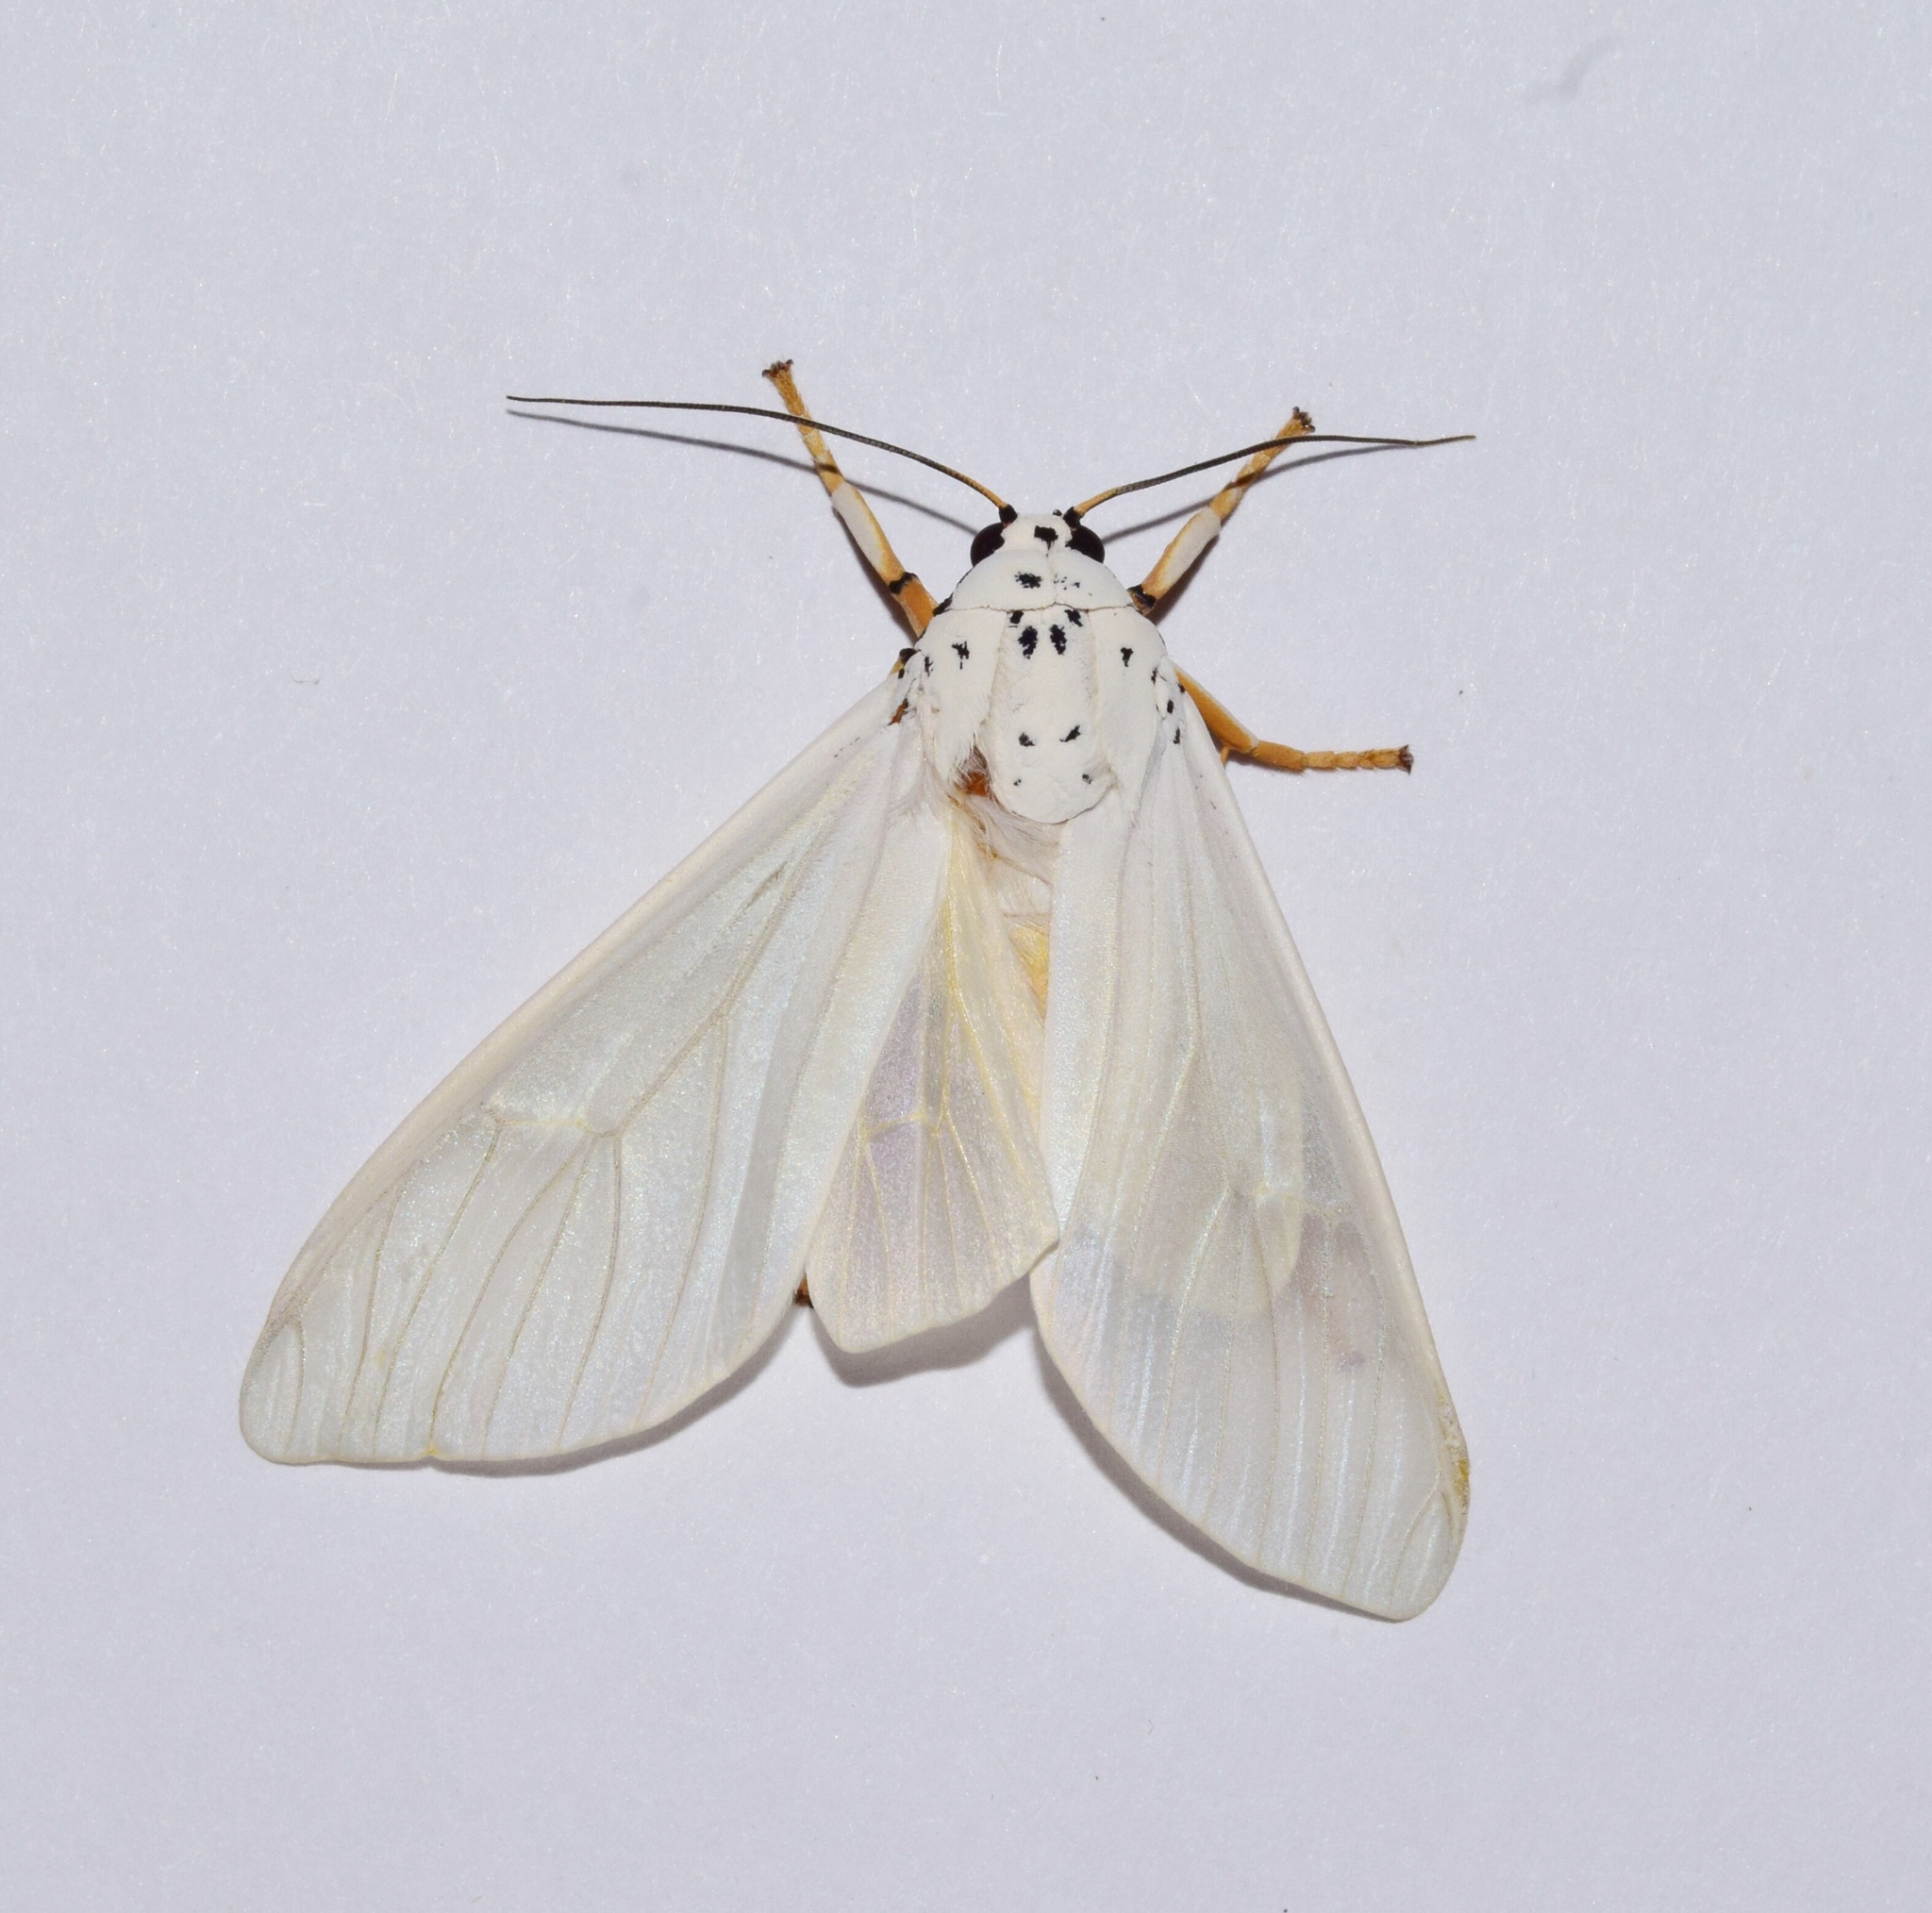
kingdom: Animalia
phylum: Arthropoda
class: Insecta
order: Lepidoptera
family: Erebidae
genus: Amerila
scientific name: Amerila bubo
